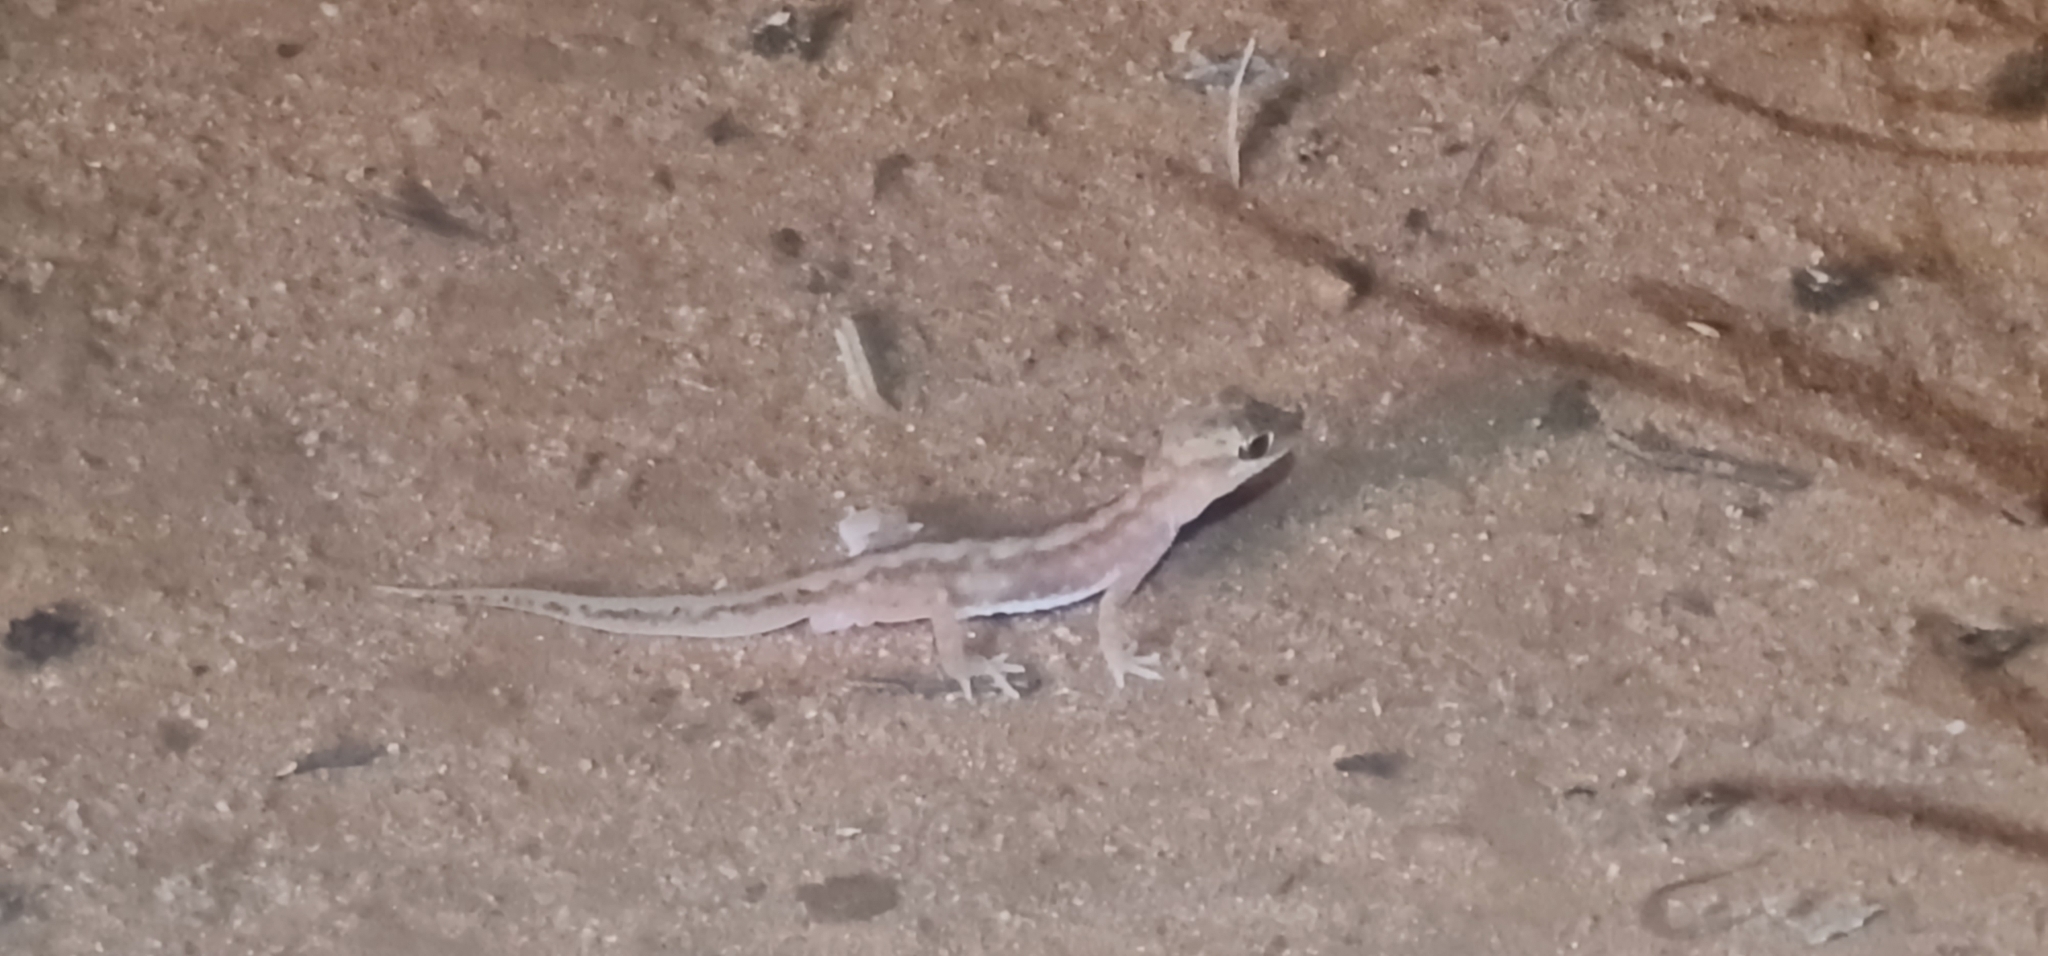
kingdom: Animalia
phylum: Chordata
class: Squamata
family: Diplodactylidae
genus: Lucasium
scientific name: Lucasium damaeum
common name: Beaded gecko
